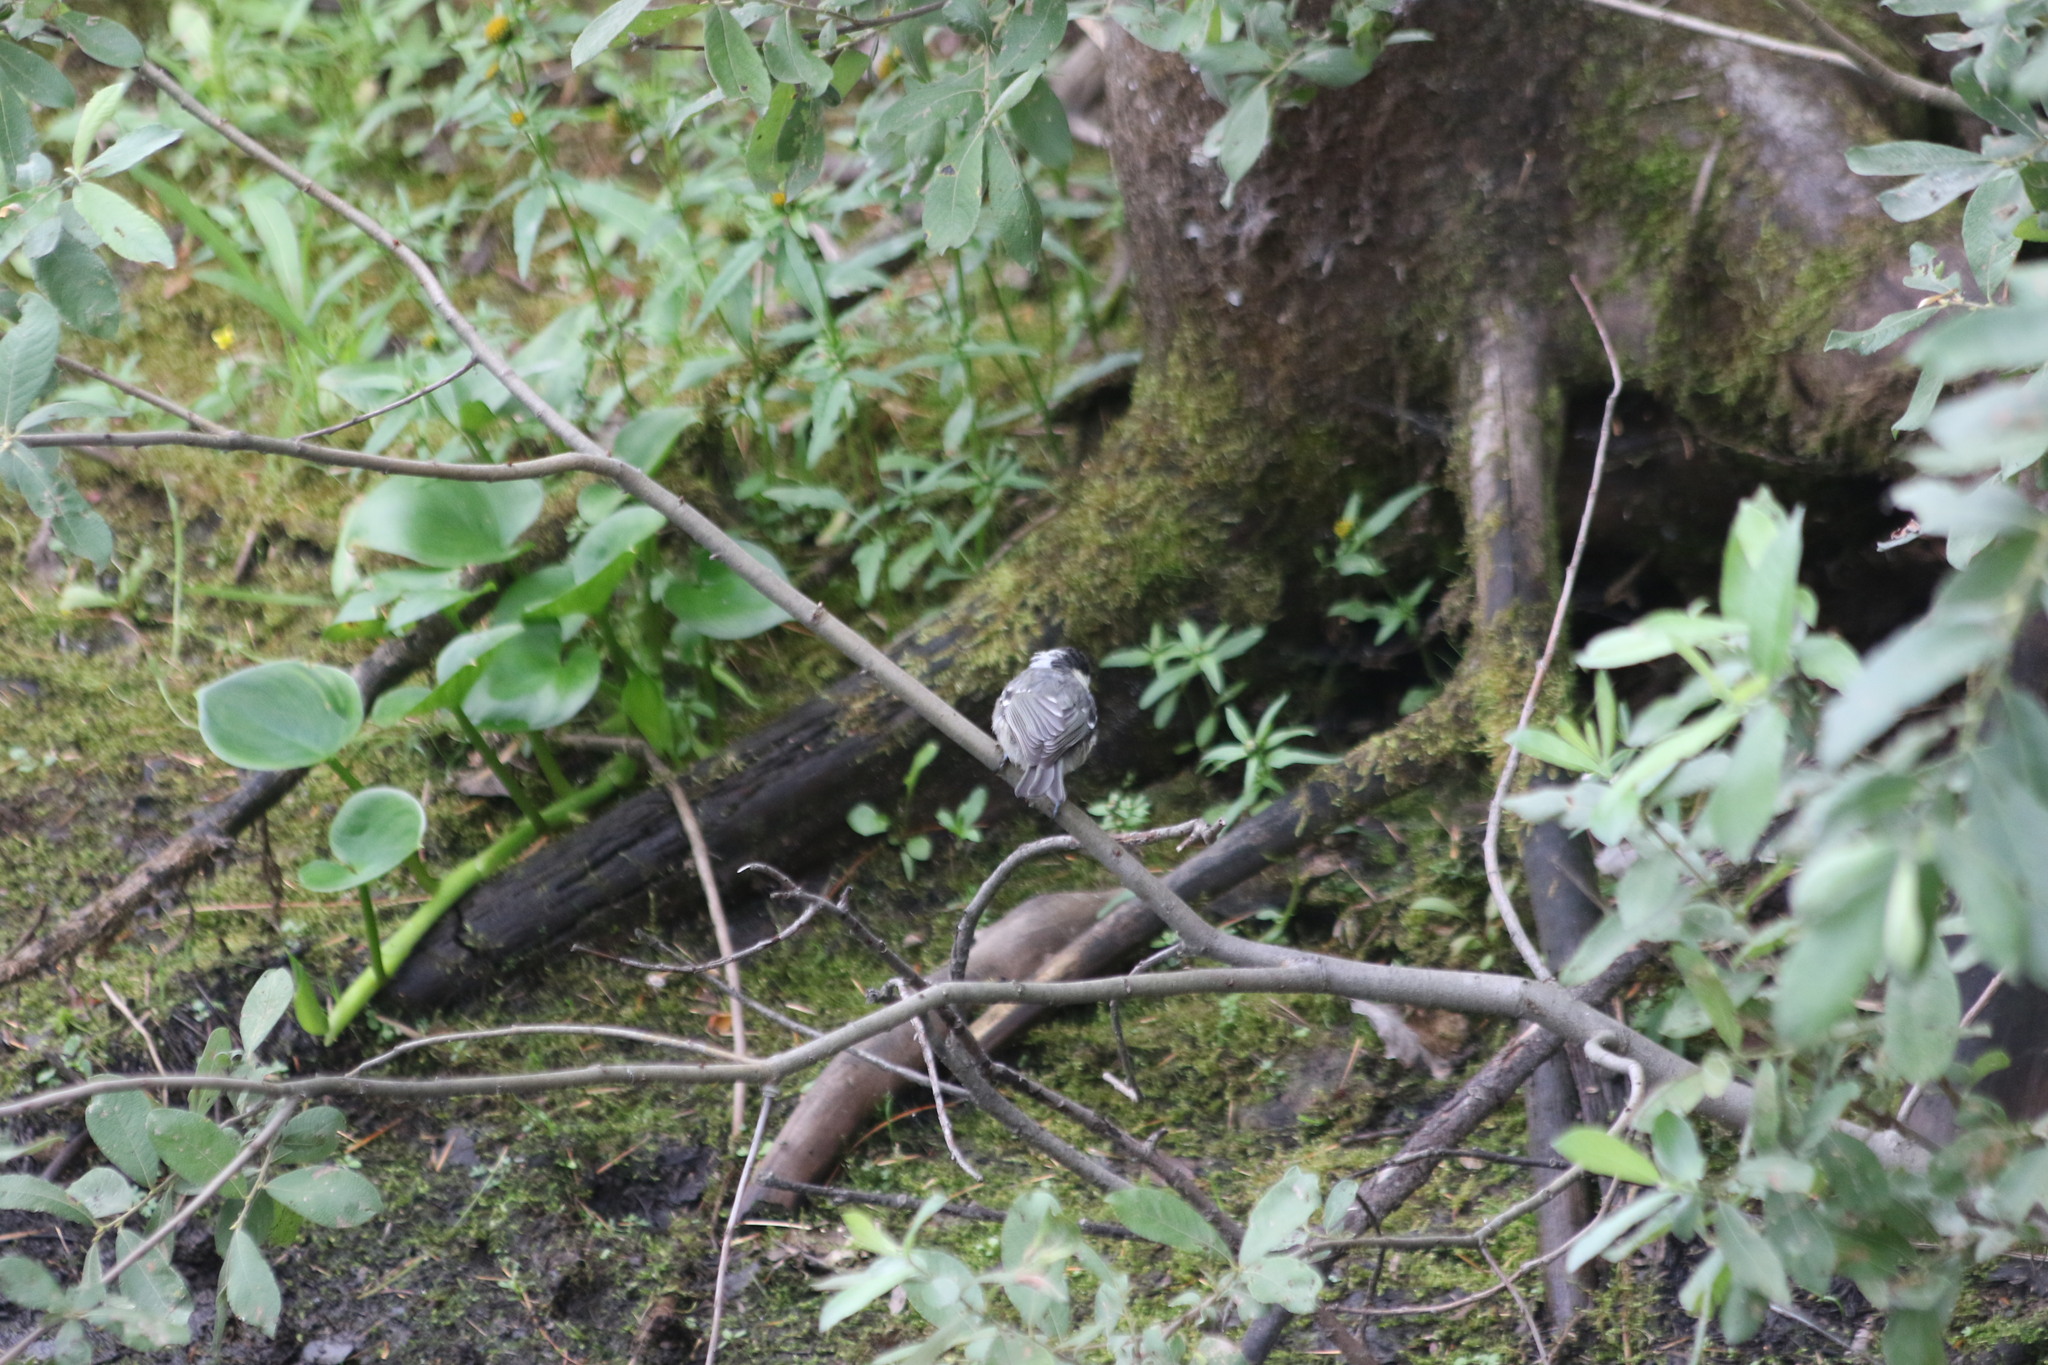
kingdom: Animalia
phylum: Chordata
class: Aves
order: Passeriformes
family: Paridae
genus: Periparus
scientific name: Periparus ater
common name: Coal tit
